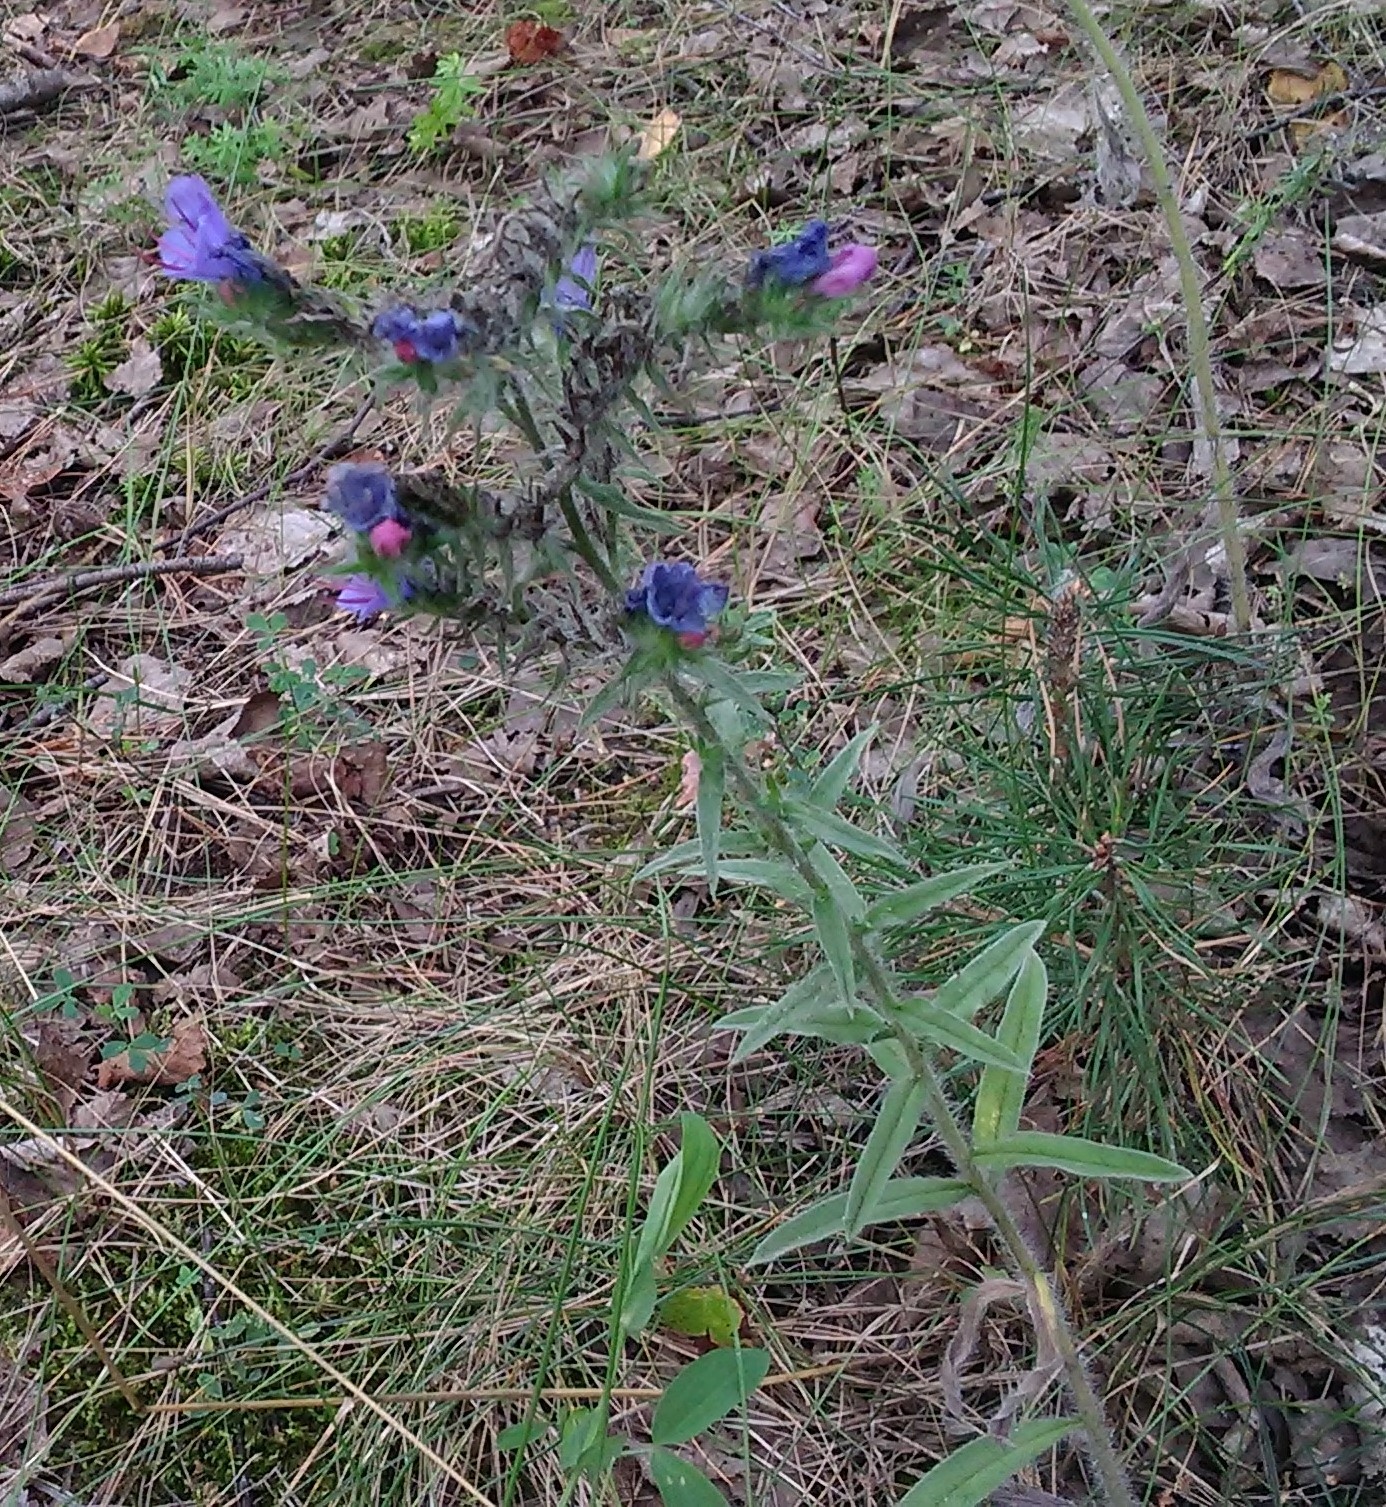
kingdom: Plantae
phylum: Tracheophyta
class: Magnoliopsida
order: Boraginales
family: Boraginaceae
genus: Echium
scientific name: Echium vulgare
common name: Common viper's bugloss
